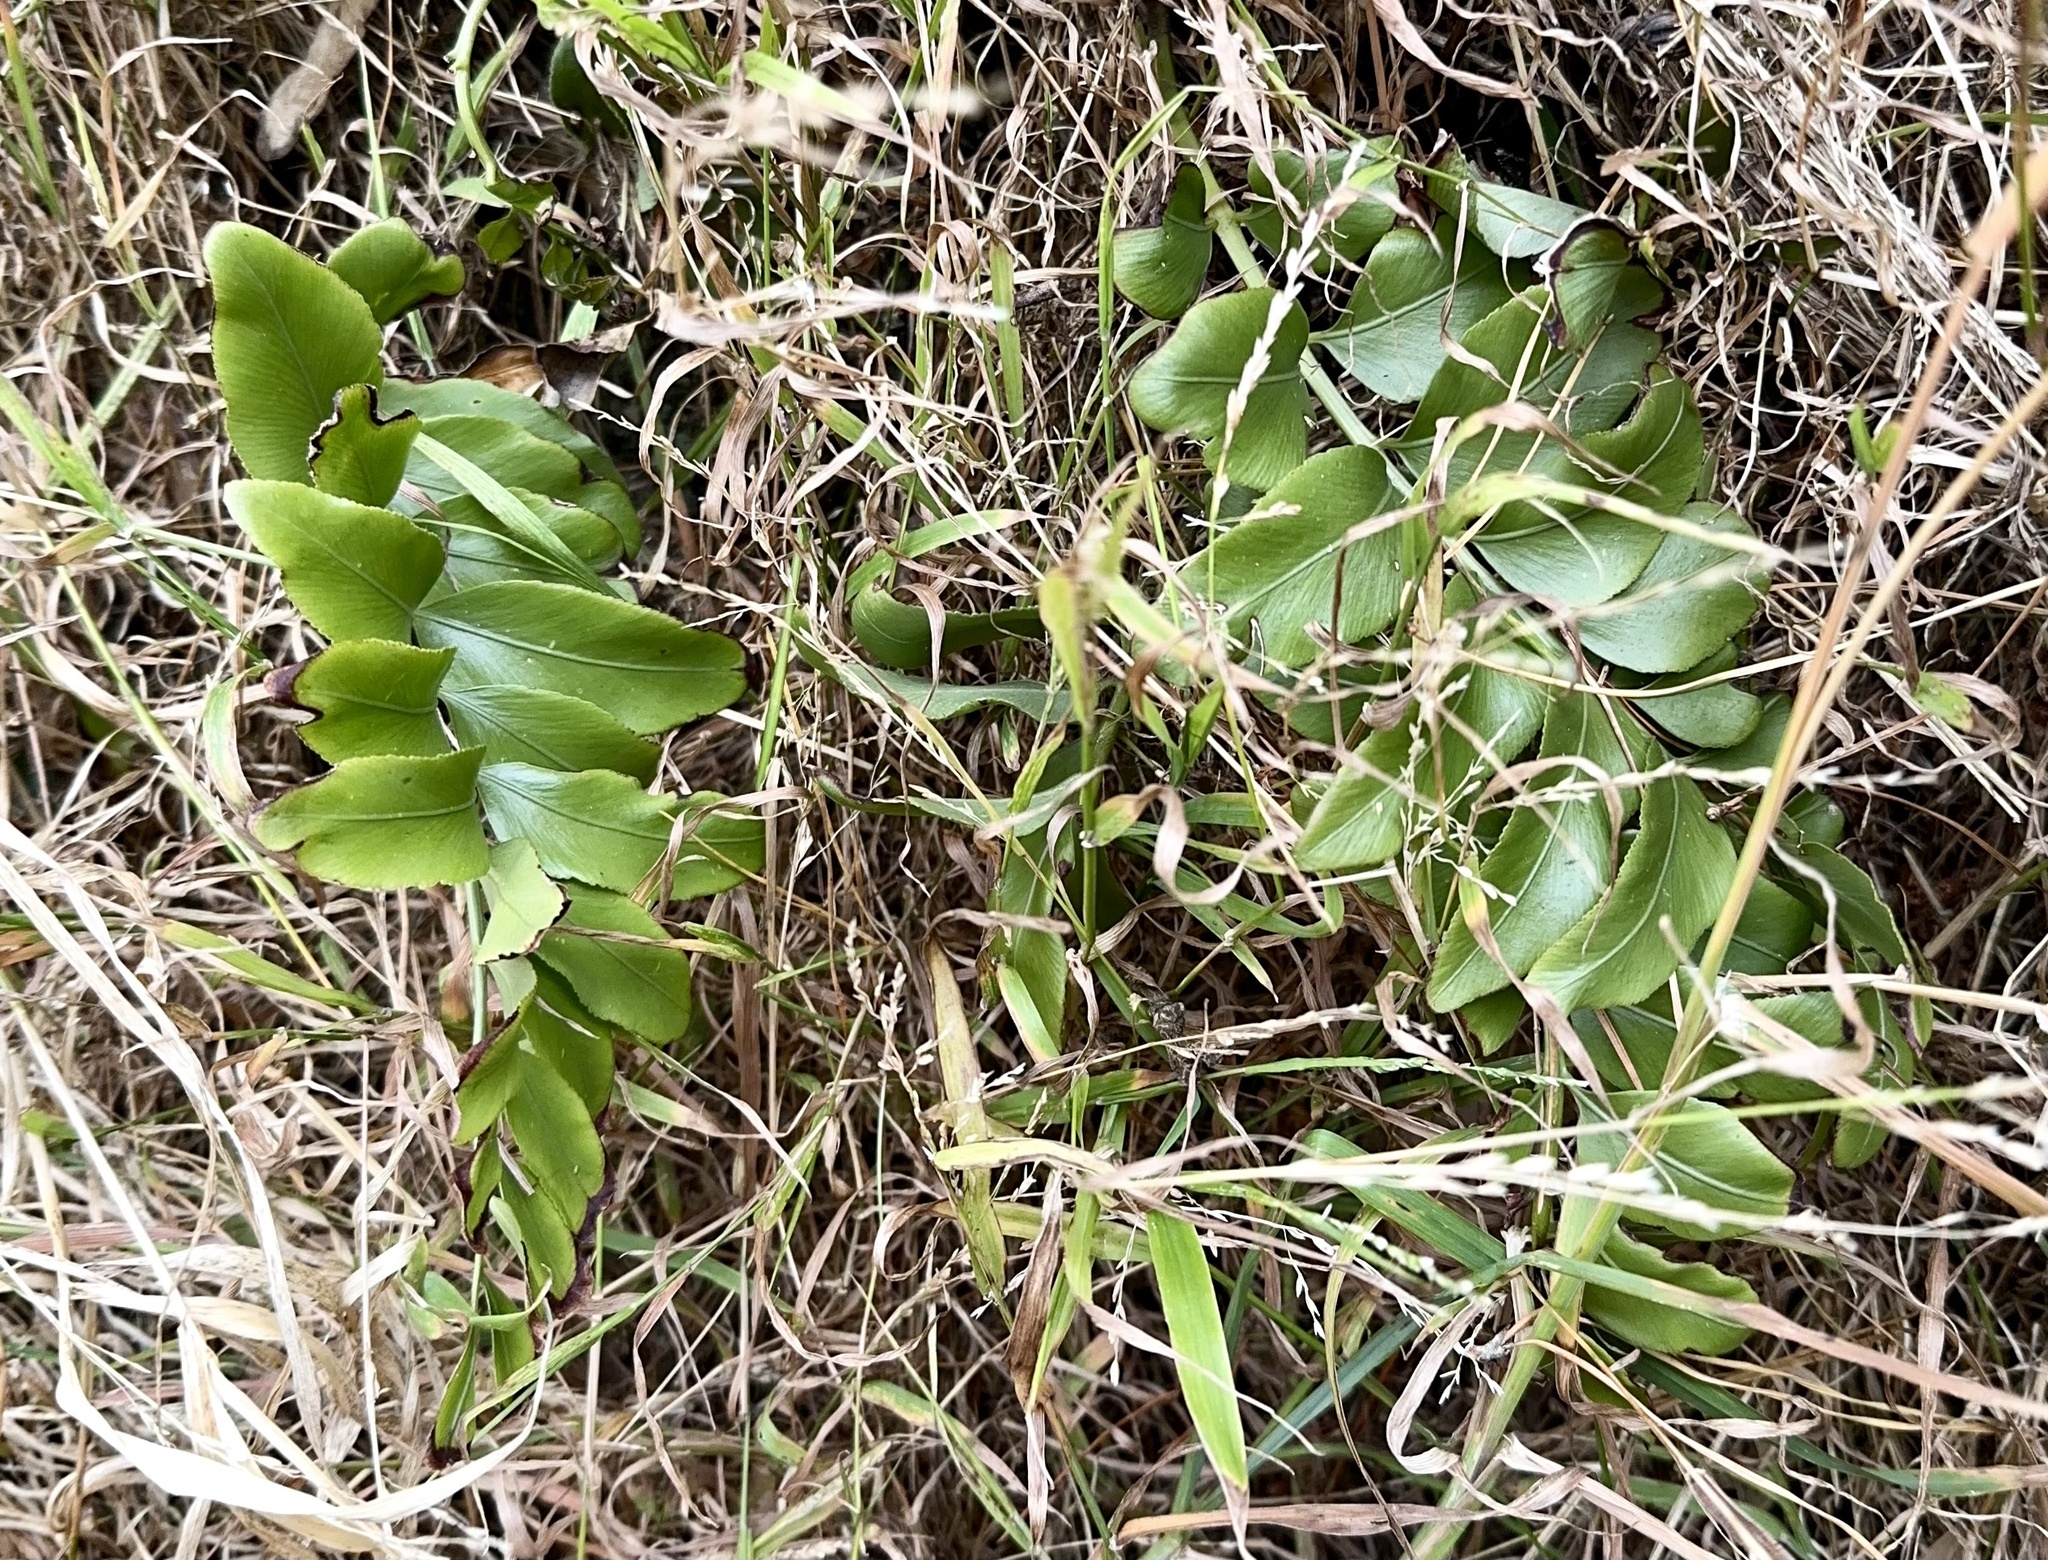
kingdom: Plantae
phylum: Tracheophyta
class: Polypodiopsida
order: Polypodiales
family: Aspleniaceae
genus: Asplenium
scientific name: Asplenium oblongifolium
